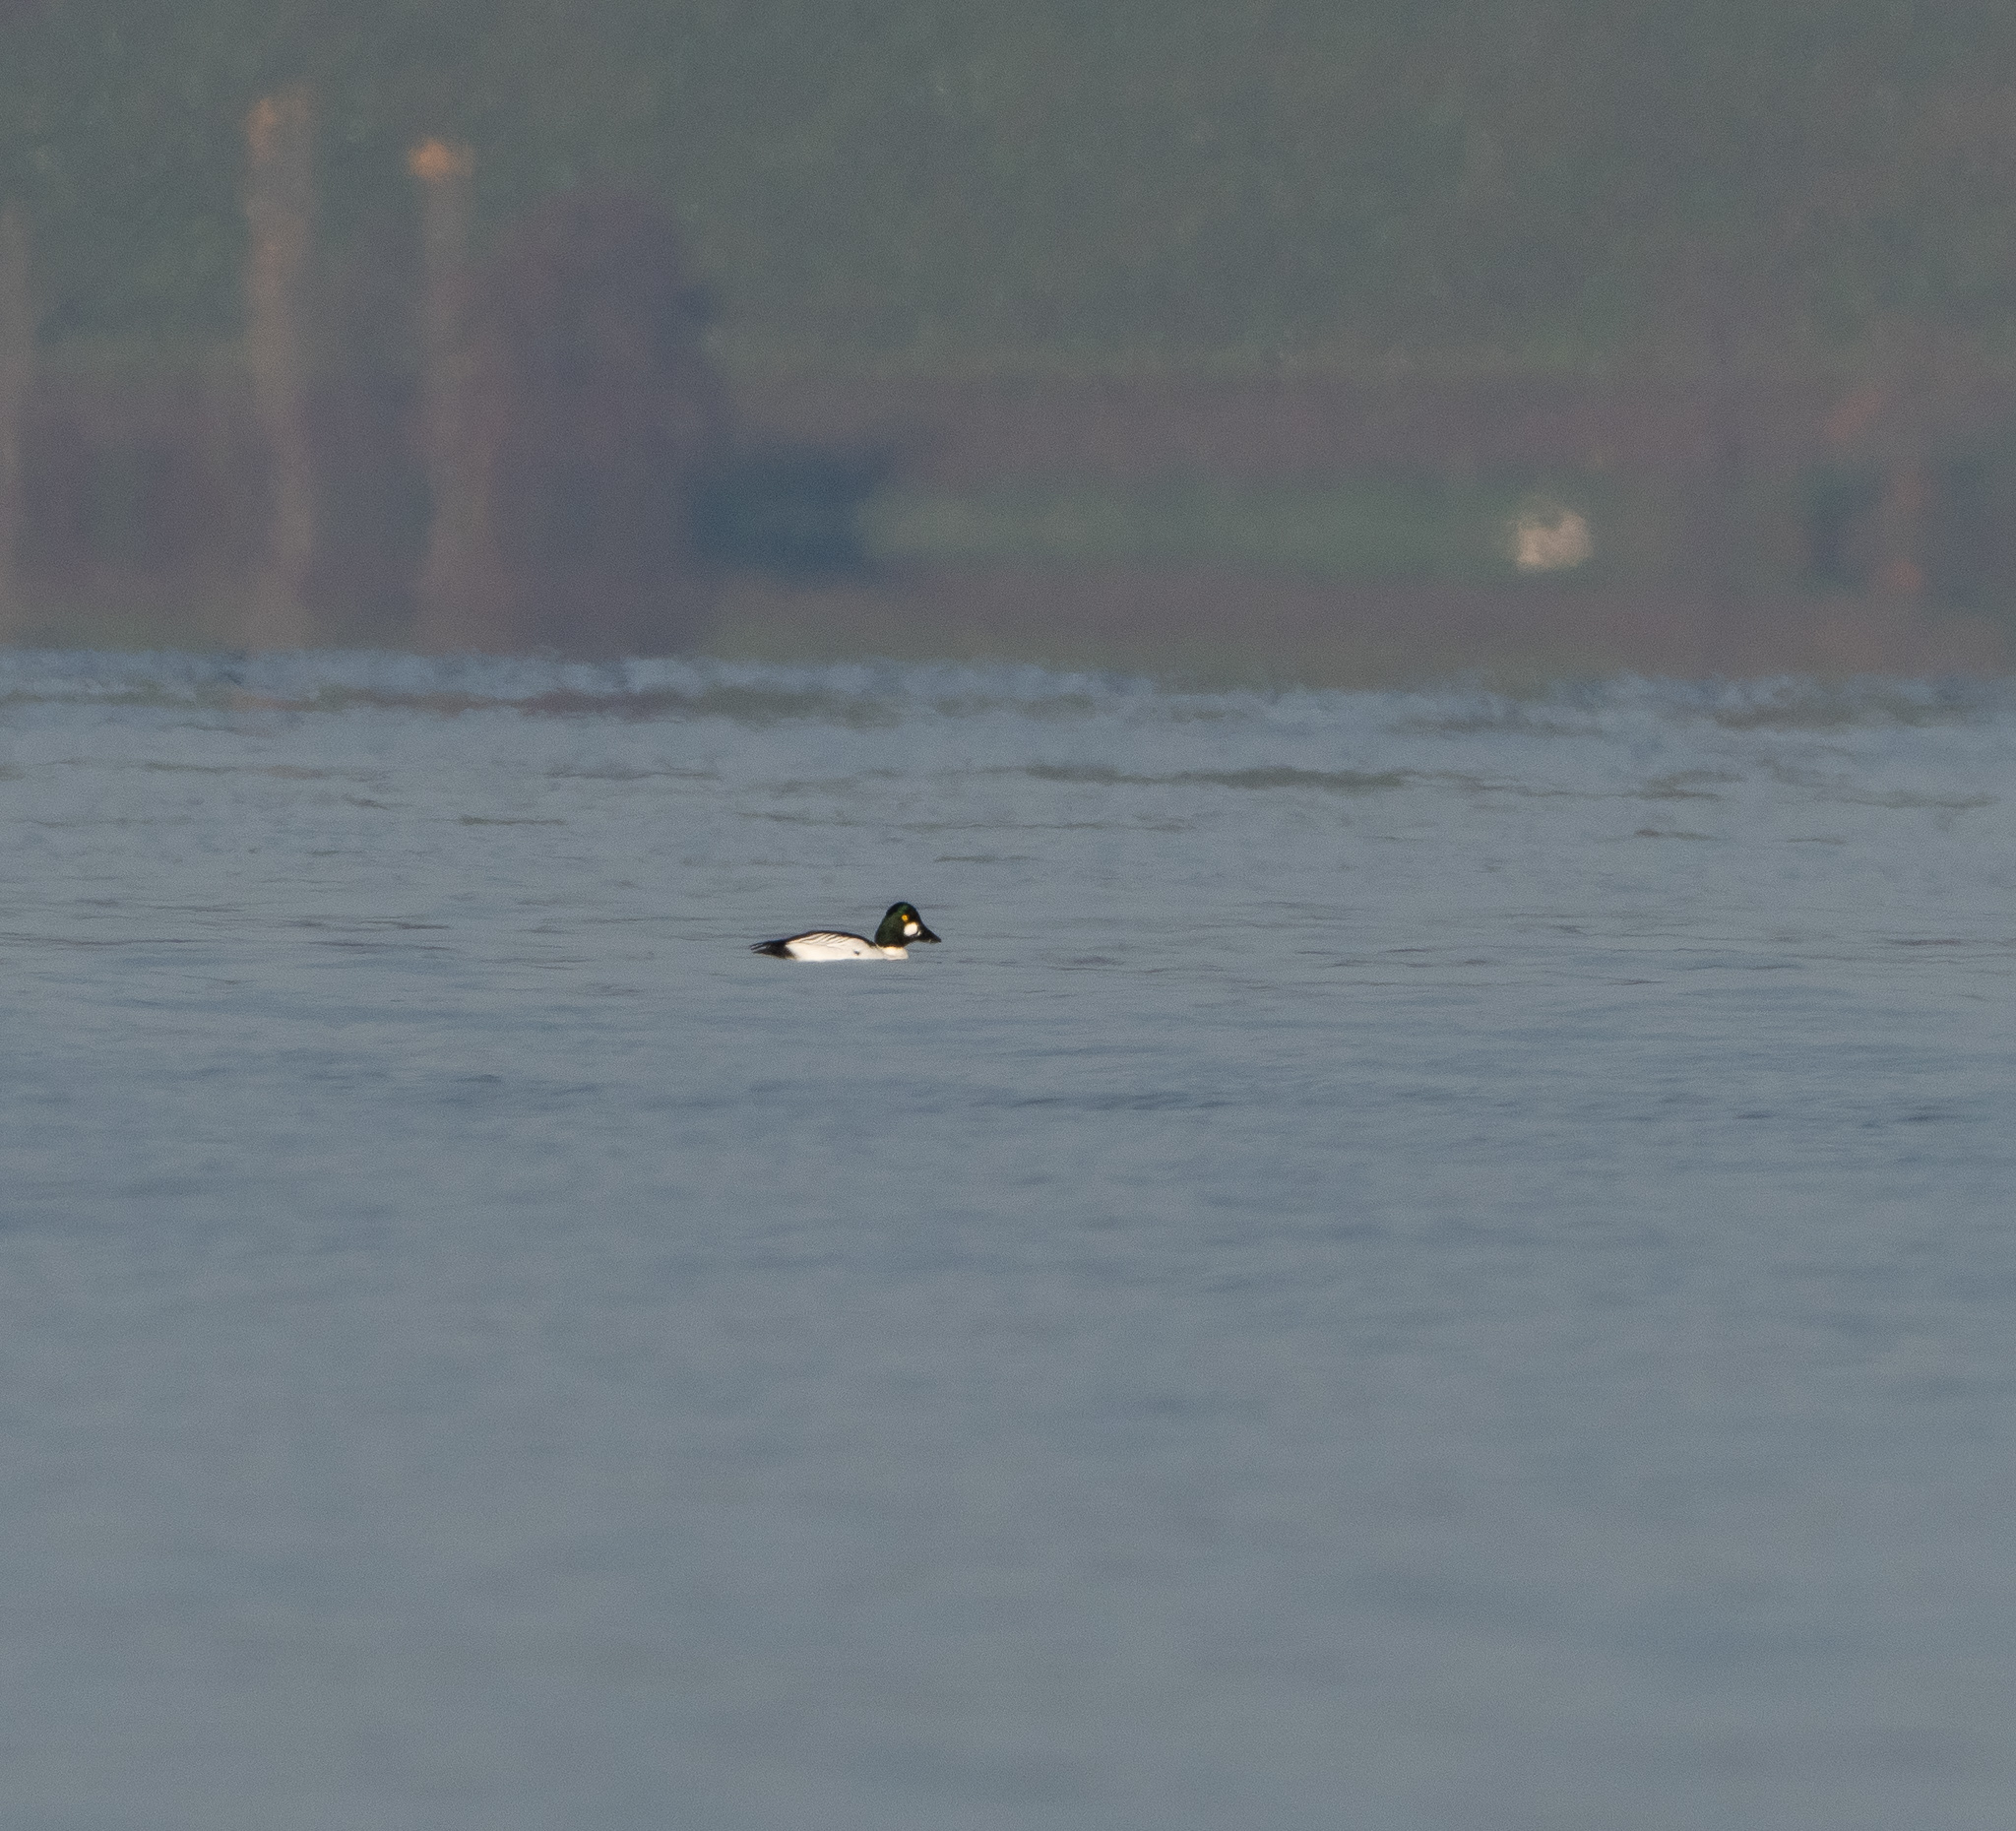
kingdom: Animalia
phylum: Chordata
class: Aves
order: Anseriformes
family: Anatidae
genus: Bucephala
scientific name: Bucephala clangula
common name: Common goldeneye
